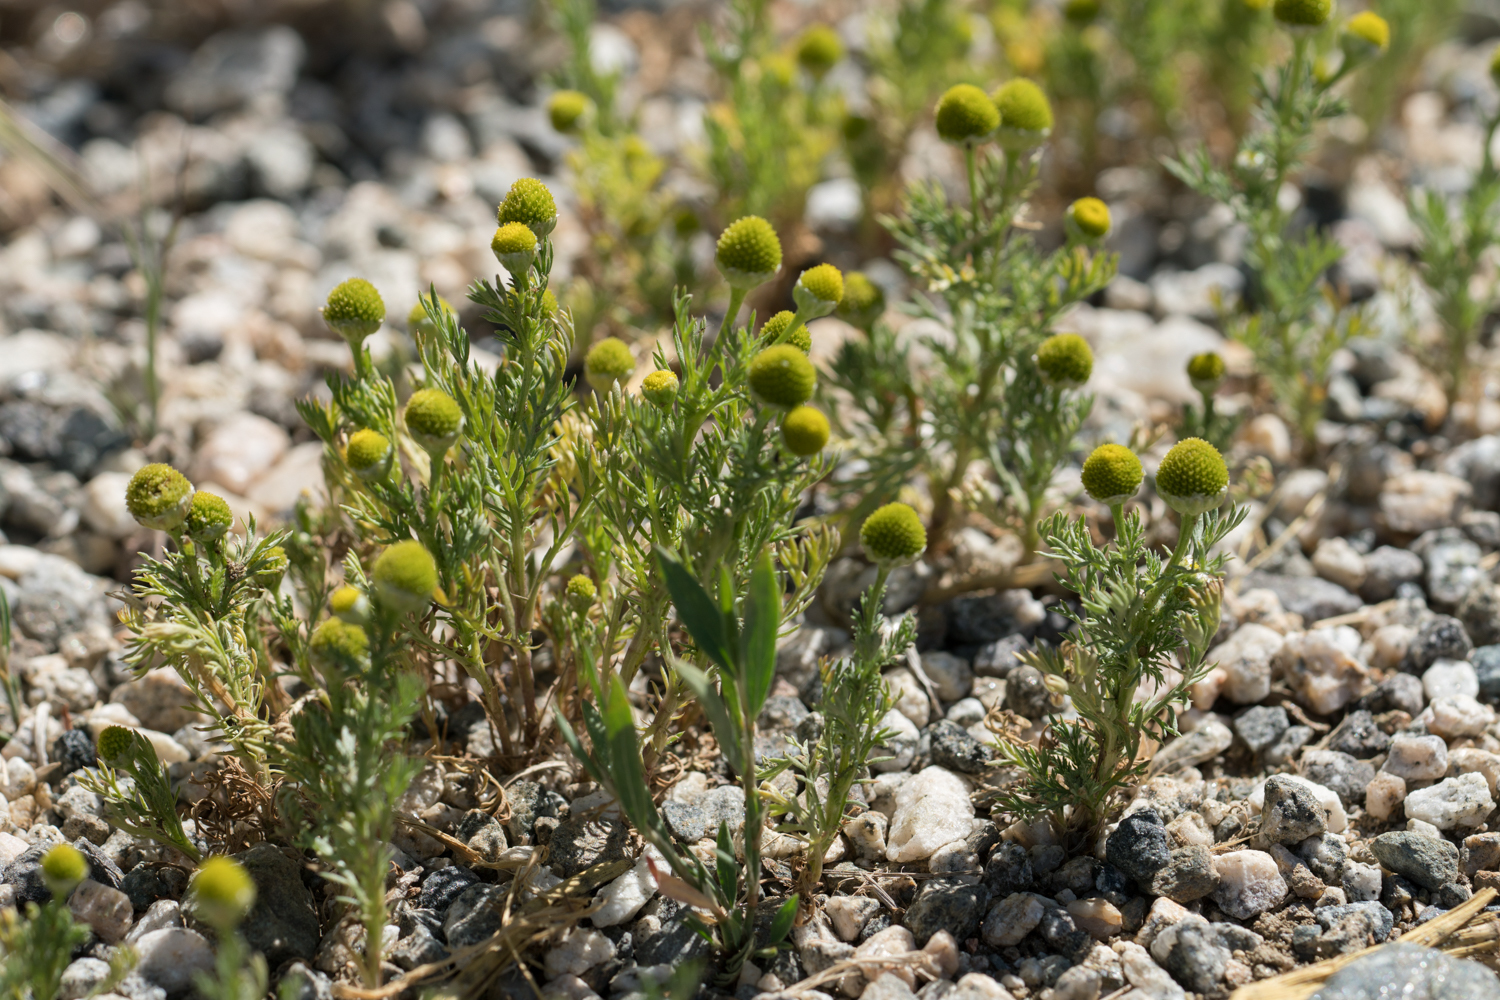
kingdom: Plantae
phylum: Tracheophyta
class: Magnoliopsida
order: Asterales
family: Asteraceae
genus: Matricaria
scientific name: Matricaria discoidea
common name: Disc mayweed
